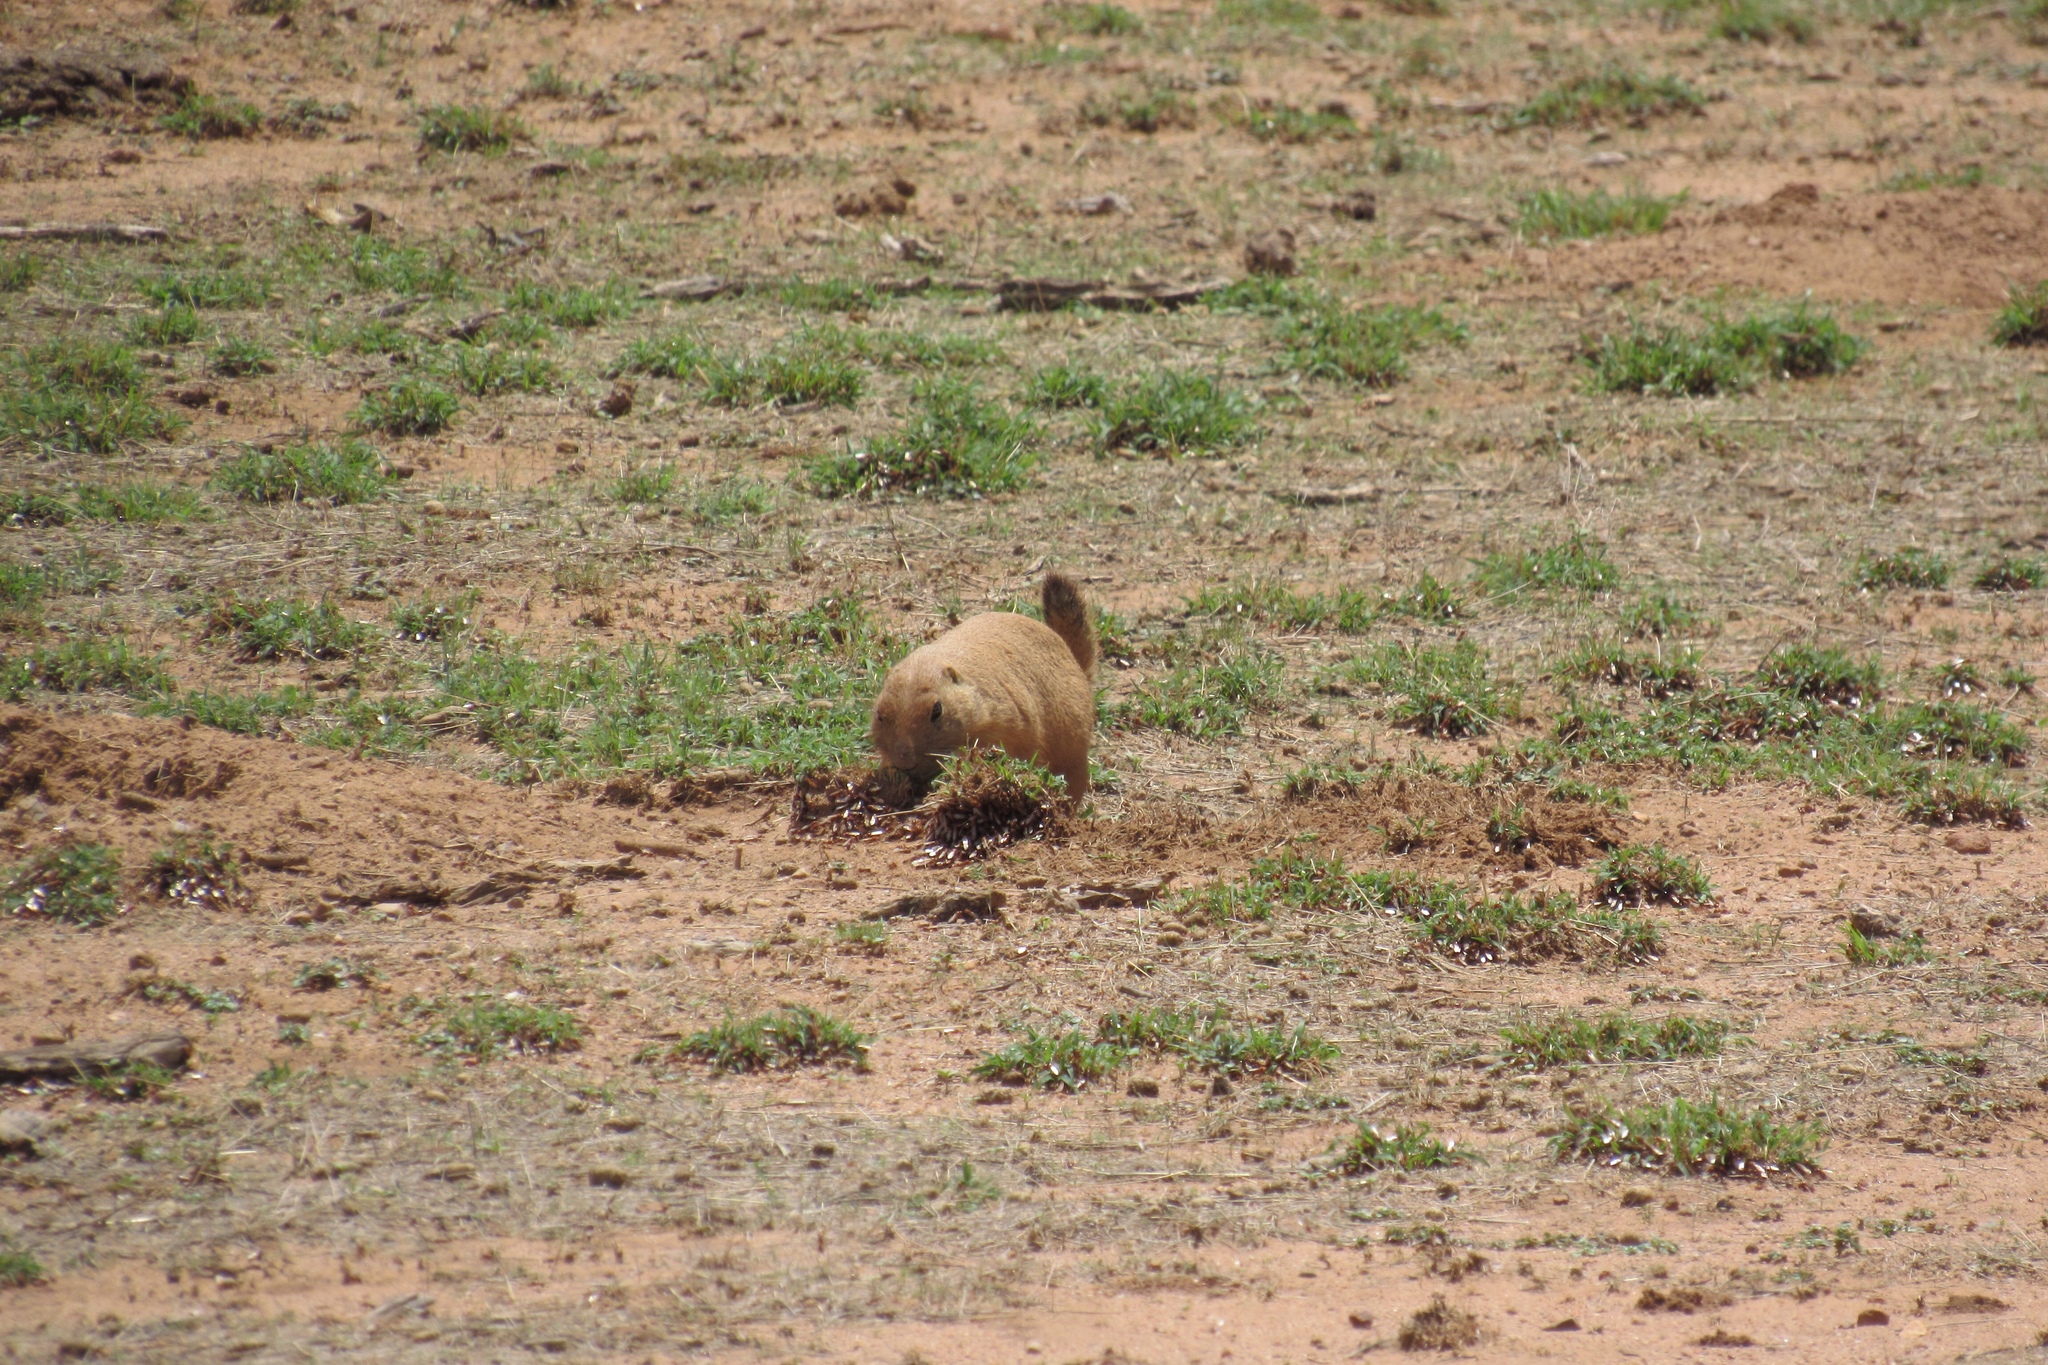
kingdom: Animalia
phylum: Chordata
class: Mammalia
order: Rodentia
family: Sciuridae
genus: Cynomys
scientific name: Cynomys ludovicianus
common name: Black-tailed prairie dog
